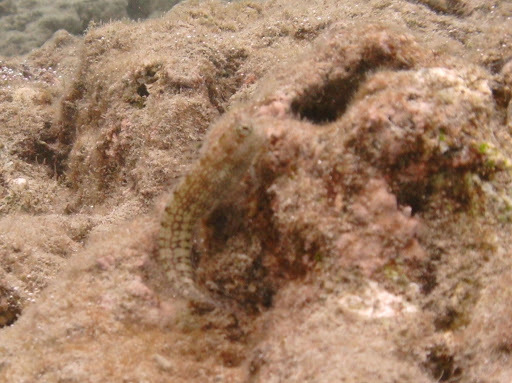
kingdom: Animalia
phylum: Chordata
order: Perciformes
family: Blenniidae
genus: Blenniella
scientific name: Blenniella gibbifrons
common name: Picture rockskipper
